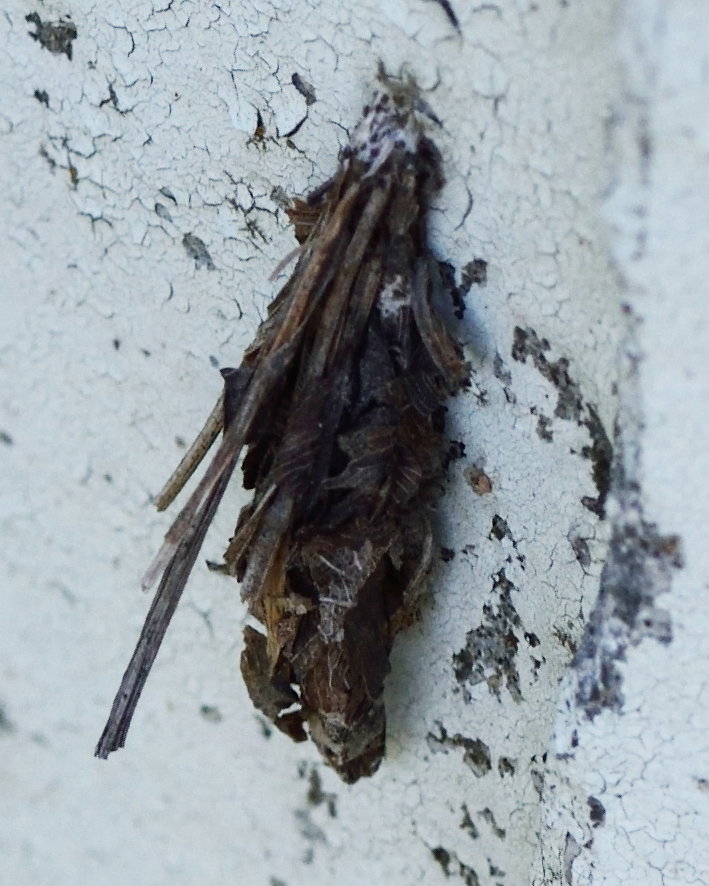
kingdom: Animalia
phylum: Arthropoda
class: Insecta
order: Lepidoptera
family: Psychidae
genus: Canephora
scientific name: Canephora hirsuta
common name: Hairy sweep
